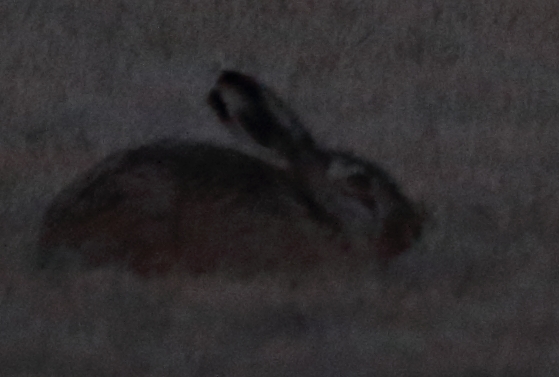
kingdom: Animalia
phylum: Chordata
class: Mammalia
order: Lagomorpha
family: Leporidae
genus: Lepus
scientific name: Lepus europaeus
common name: European hare
